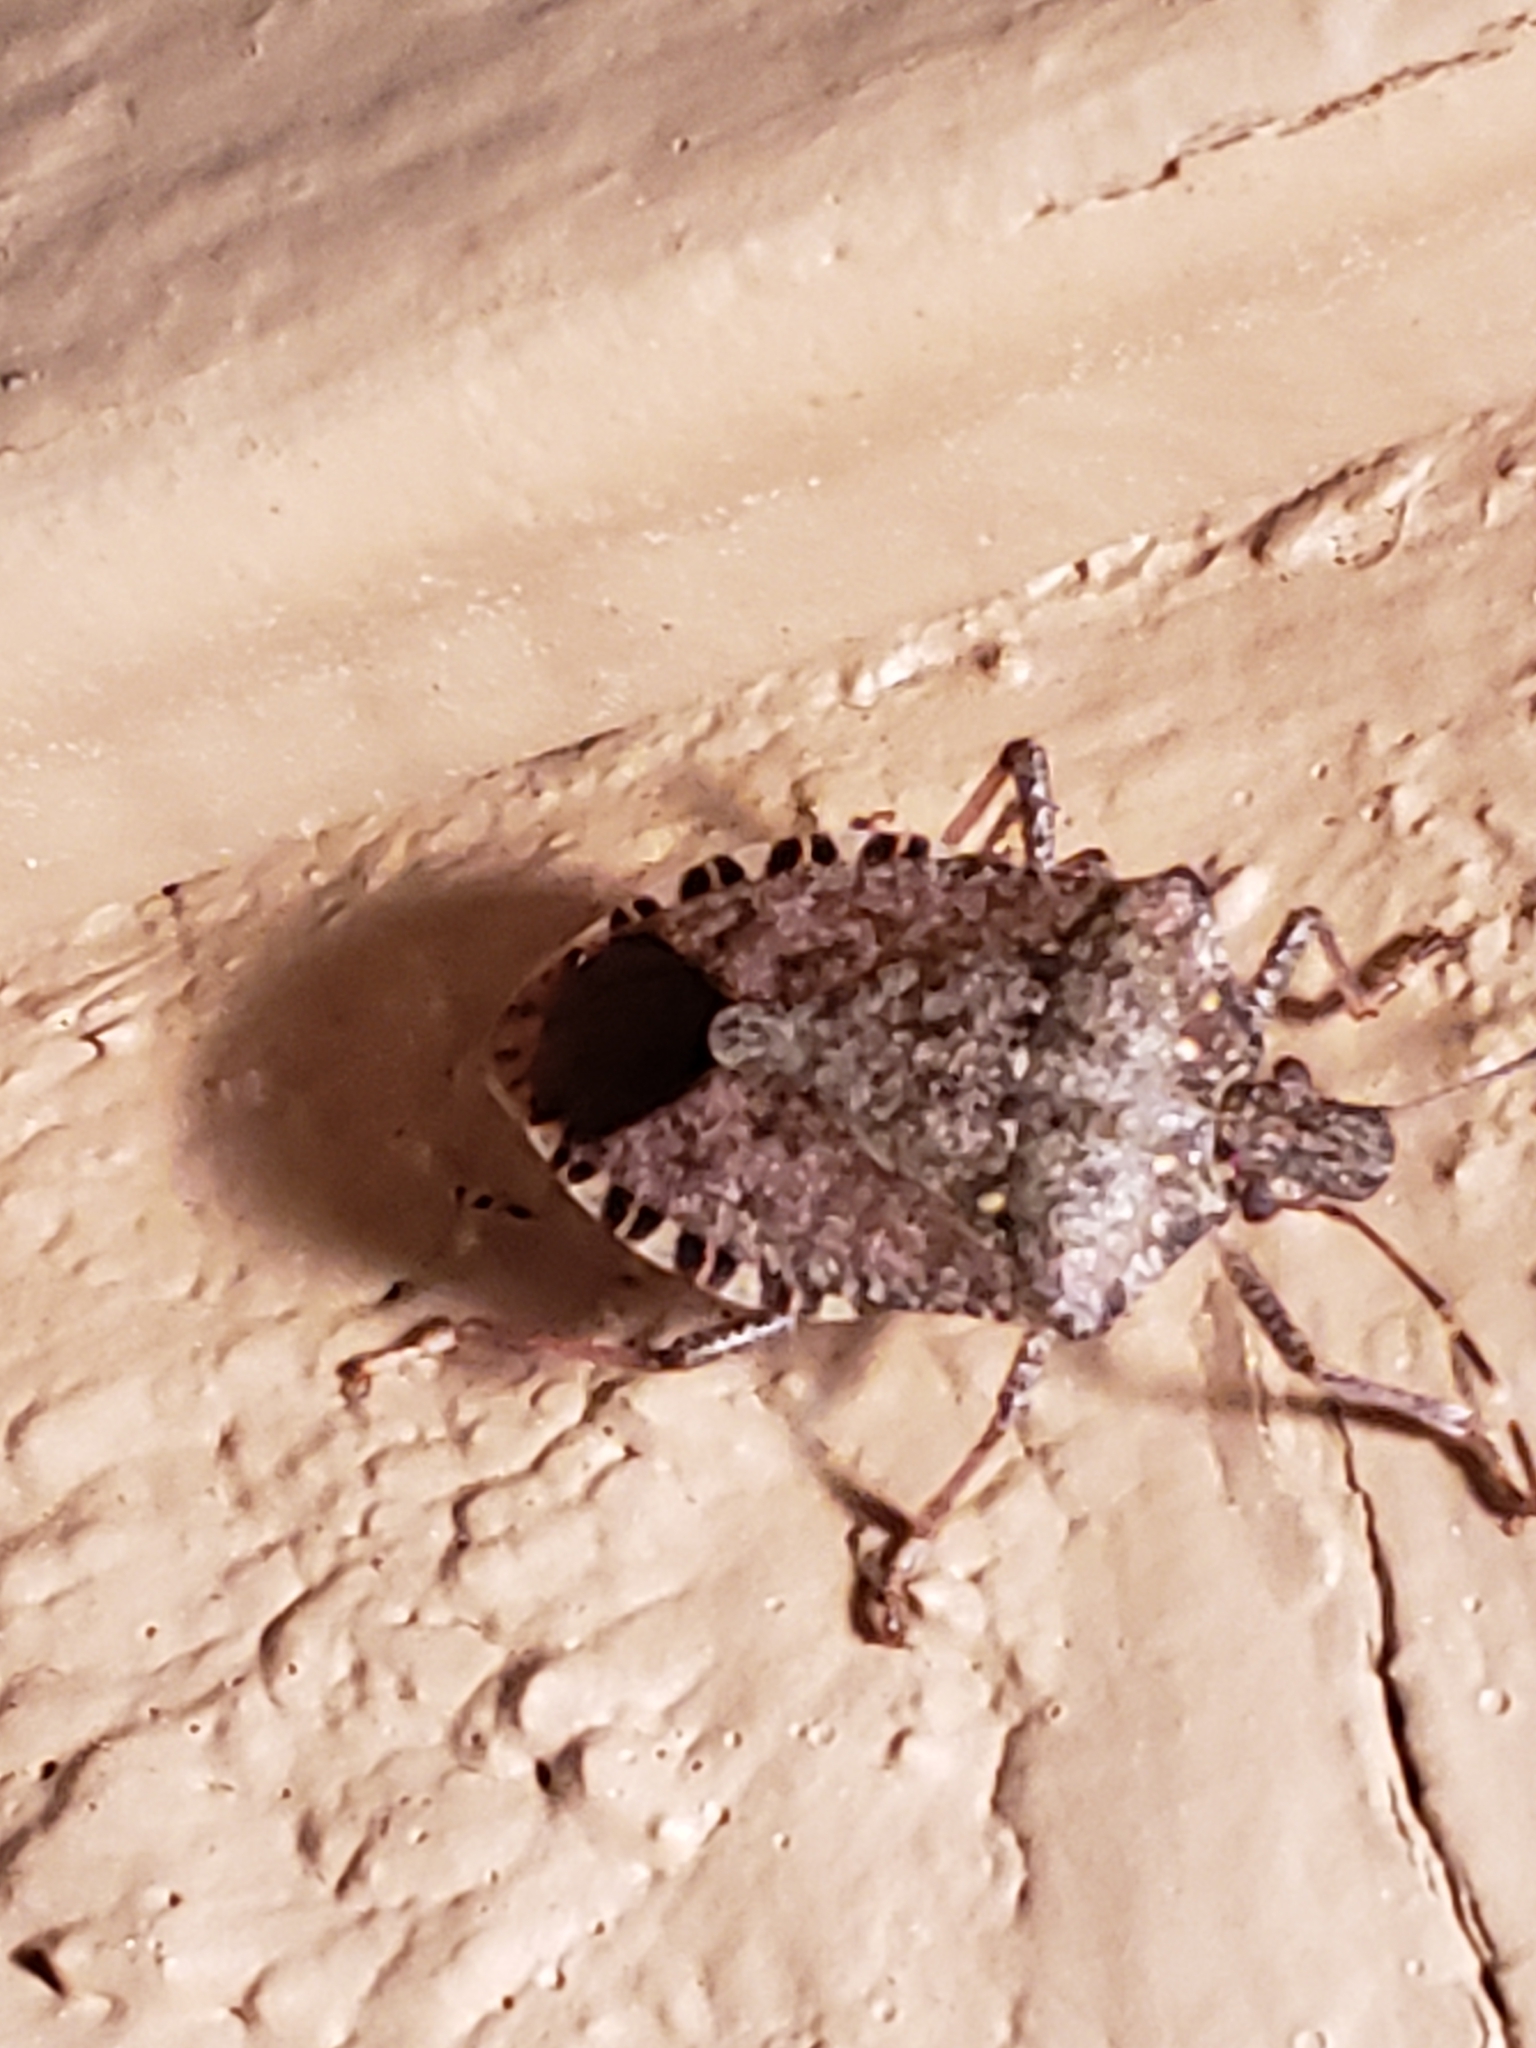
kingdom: Animalia
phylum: Arthropoda
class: Insecta
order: Hemiptera
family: Pentatomidae
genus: Halyomorpha
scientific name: Halyomorpha halys
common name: Brown marmorated stink bug
